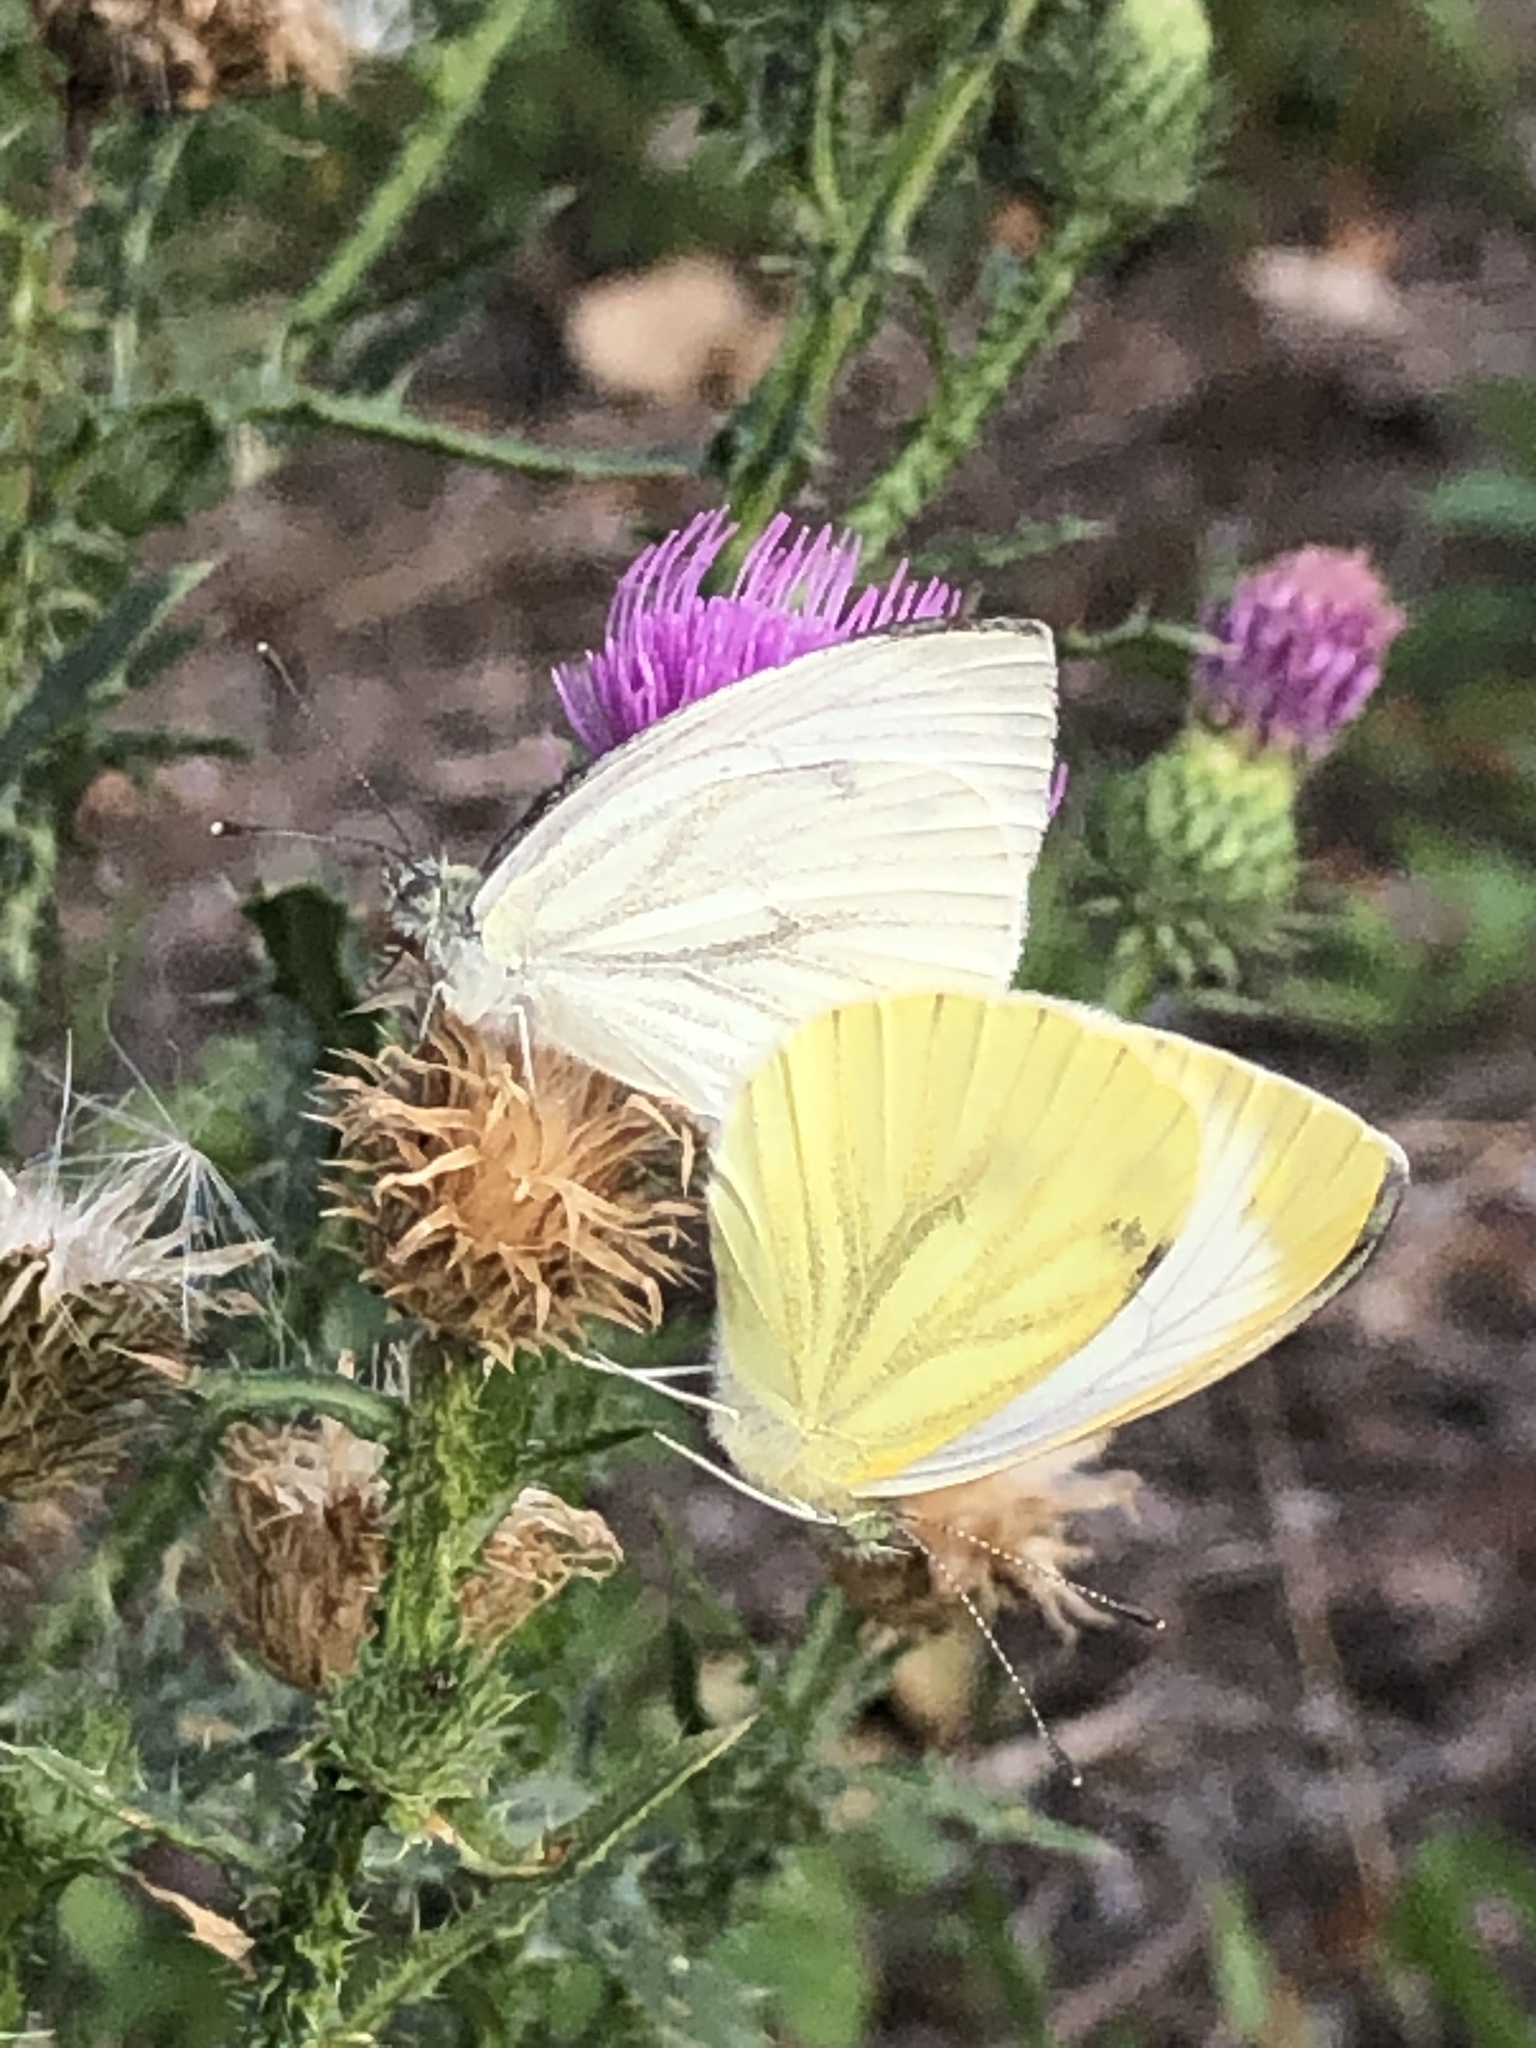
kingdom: Animalia
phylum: Arthropoda
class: Insecta
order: Lepidoptera
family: Pieridae
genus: Pieris
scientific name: Pieris napi
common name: Green-veined white
